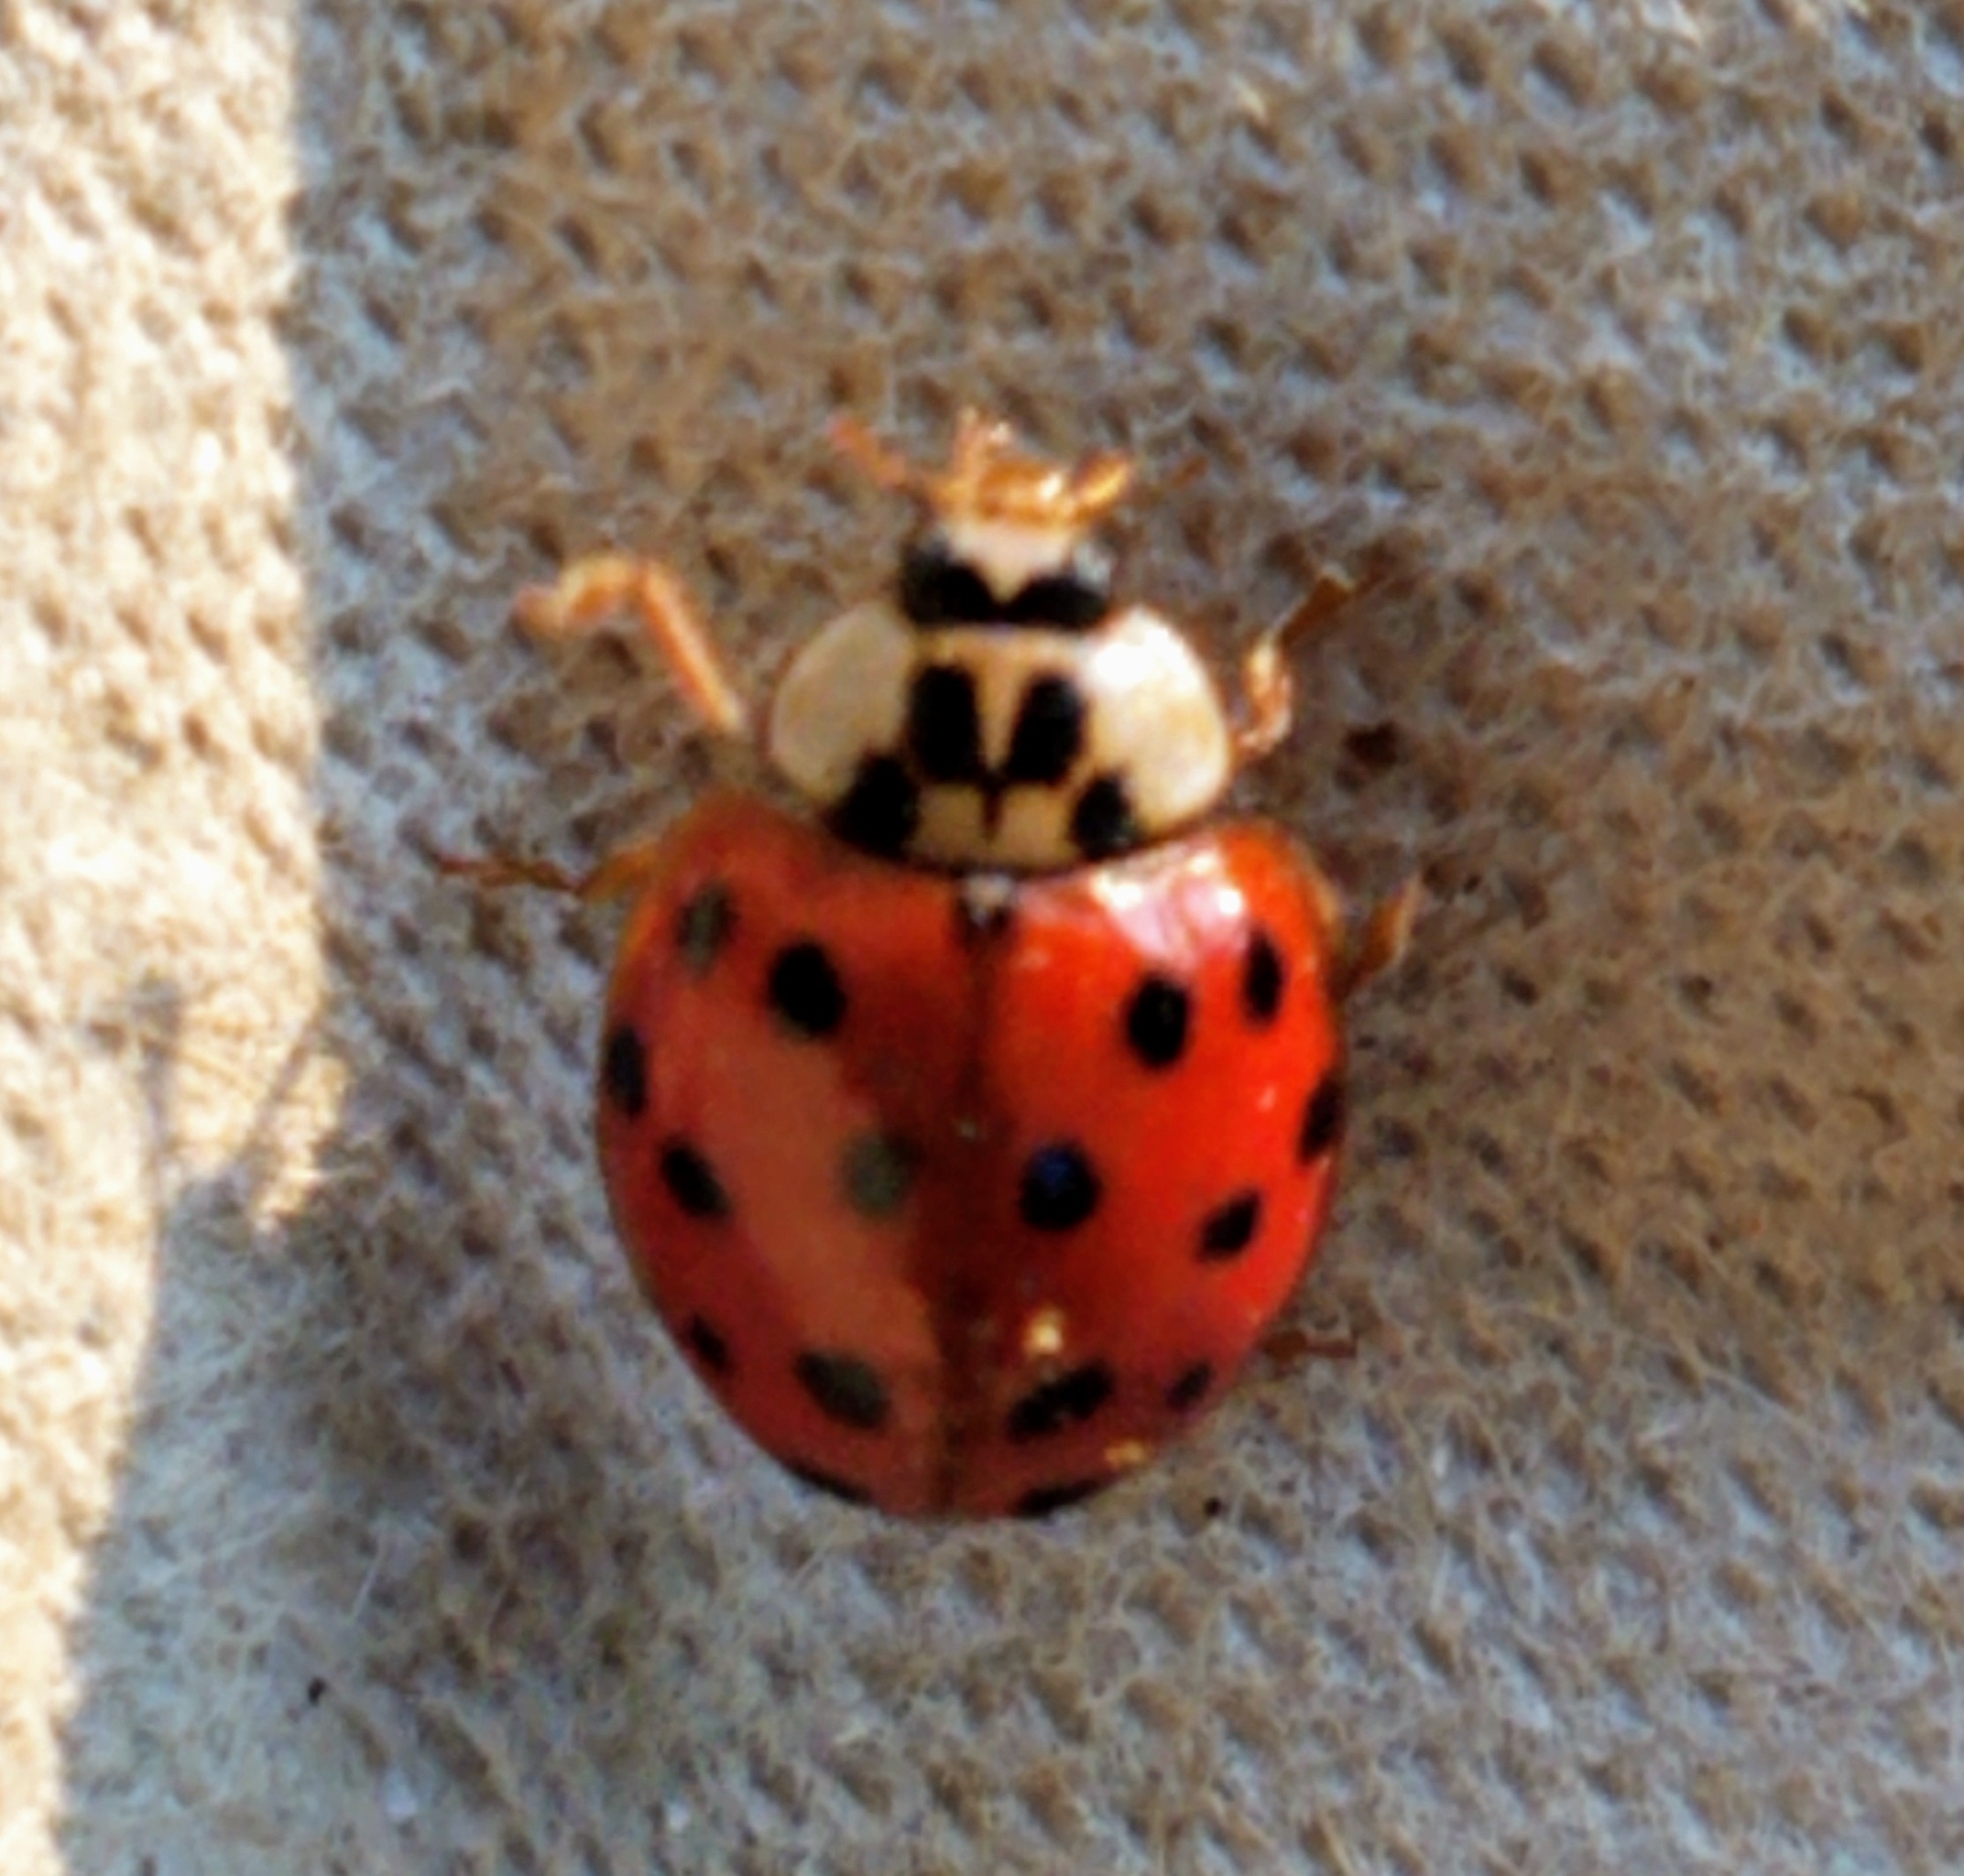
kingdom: Animalia
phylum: Arthropoda
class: Insecta
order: Coleoptera
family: Coccinellidae
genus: Harmonia
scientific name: Harmonia axyridis
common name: Harlequin ladybird
